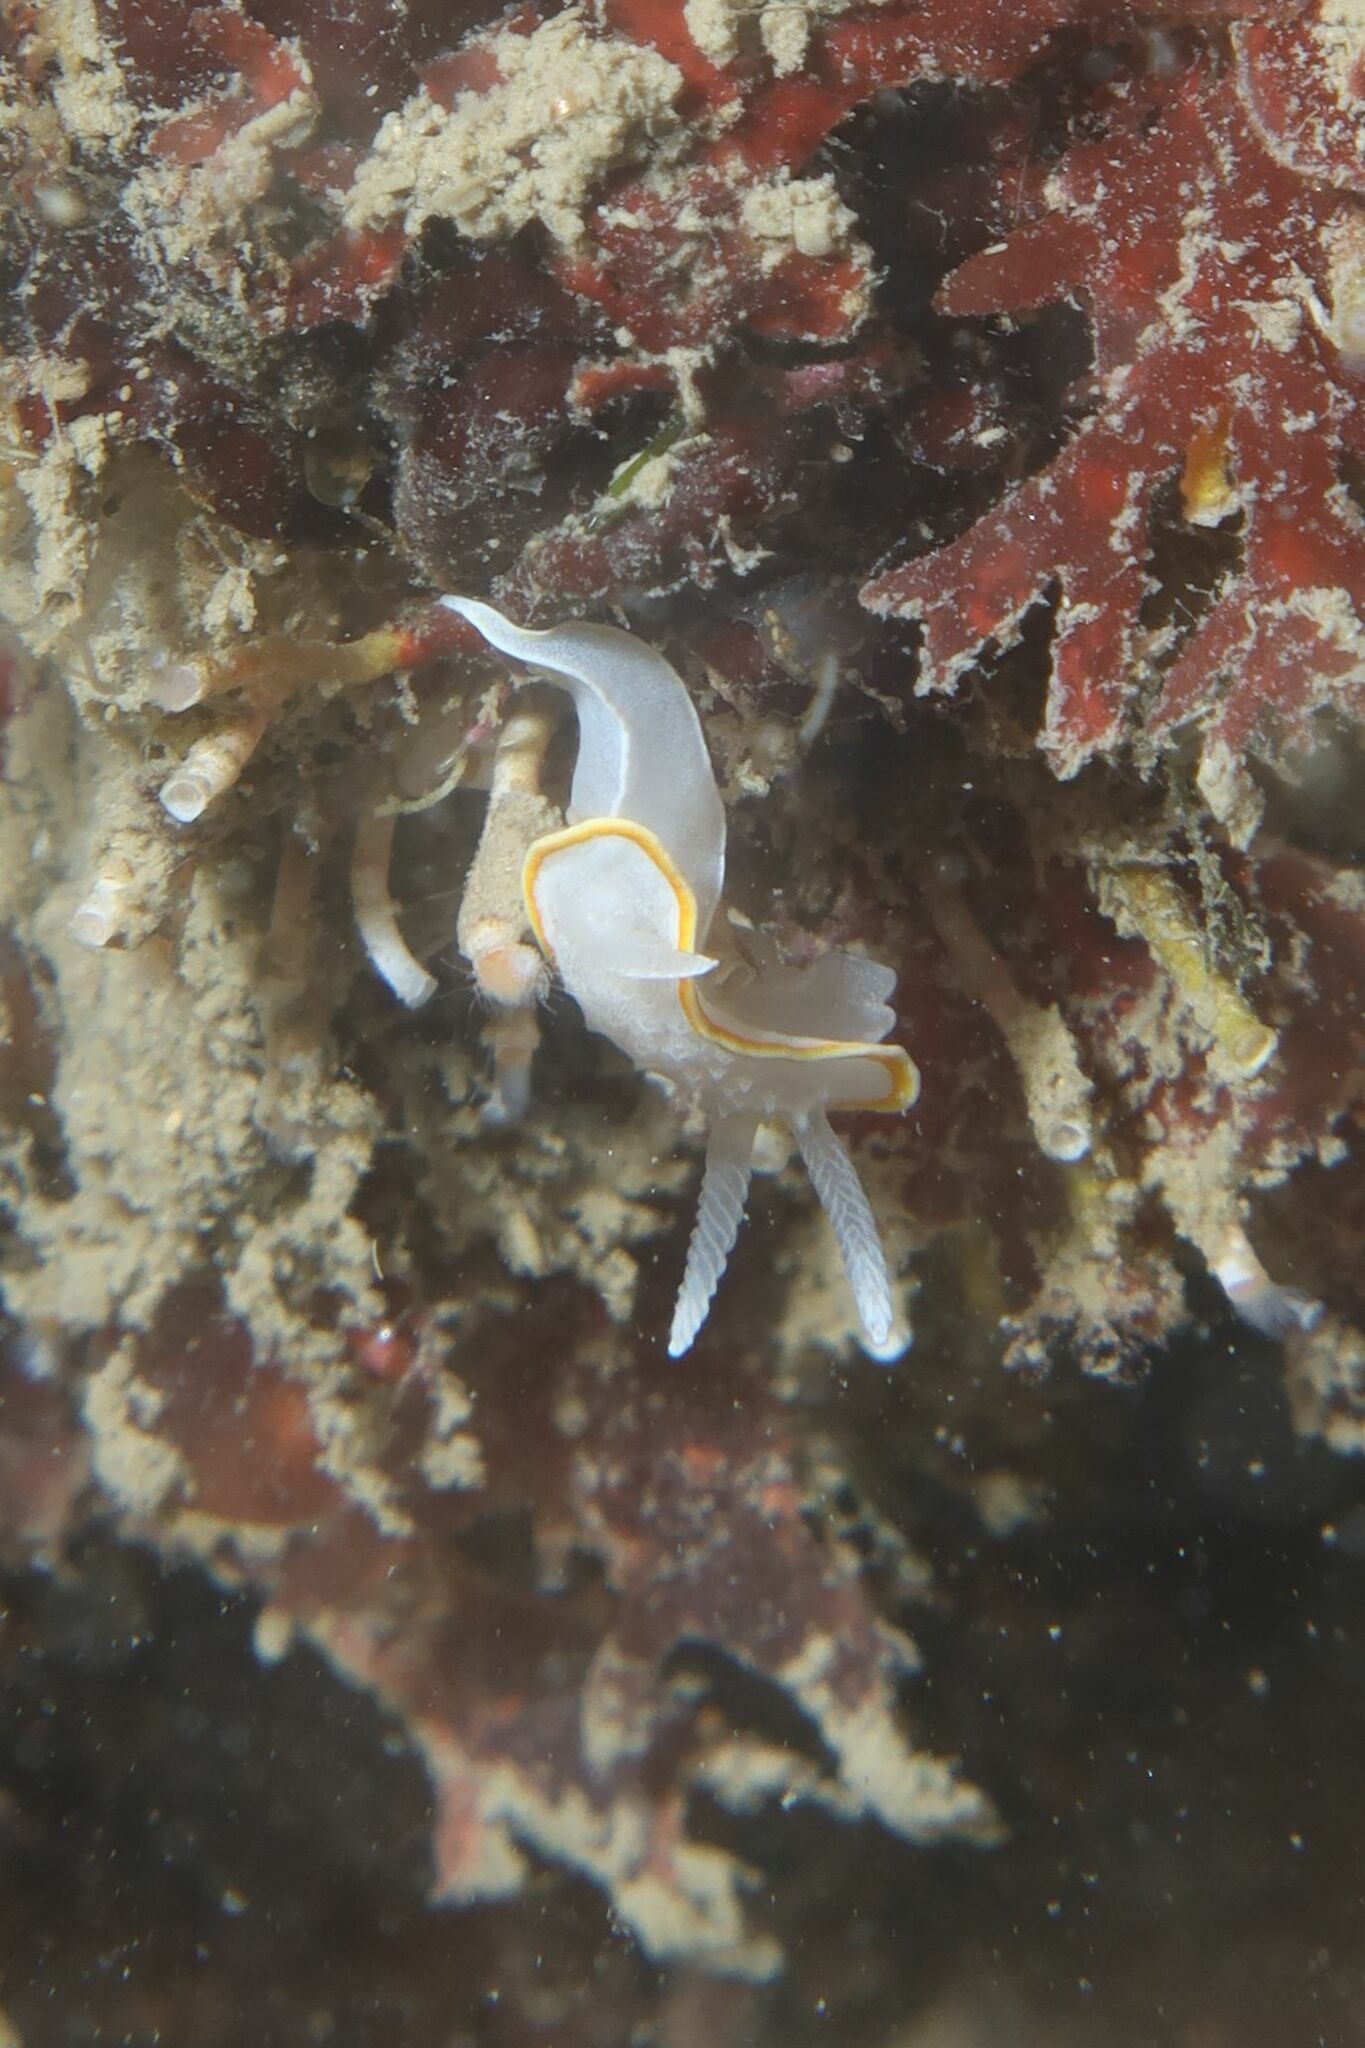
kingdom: Animalia
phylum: Mollusca
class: Gastropoda
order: Nudibranchia
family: Calycidorididae
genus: Diaphorodoris
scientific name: Diaphorodoris alba
